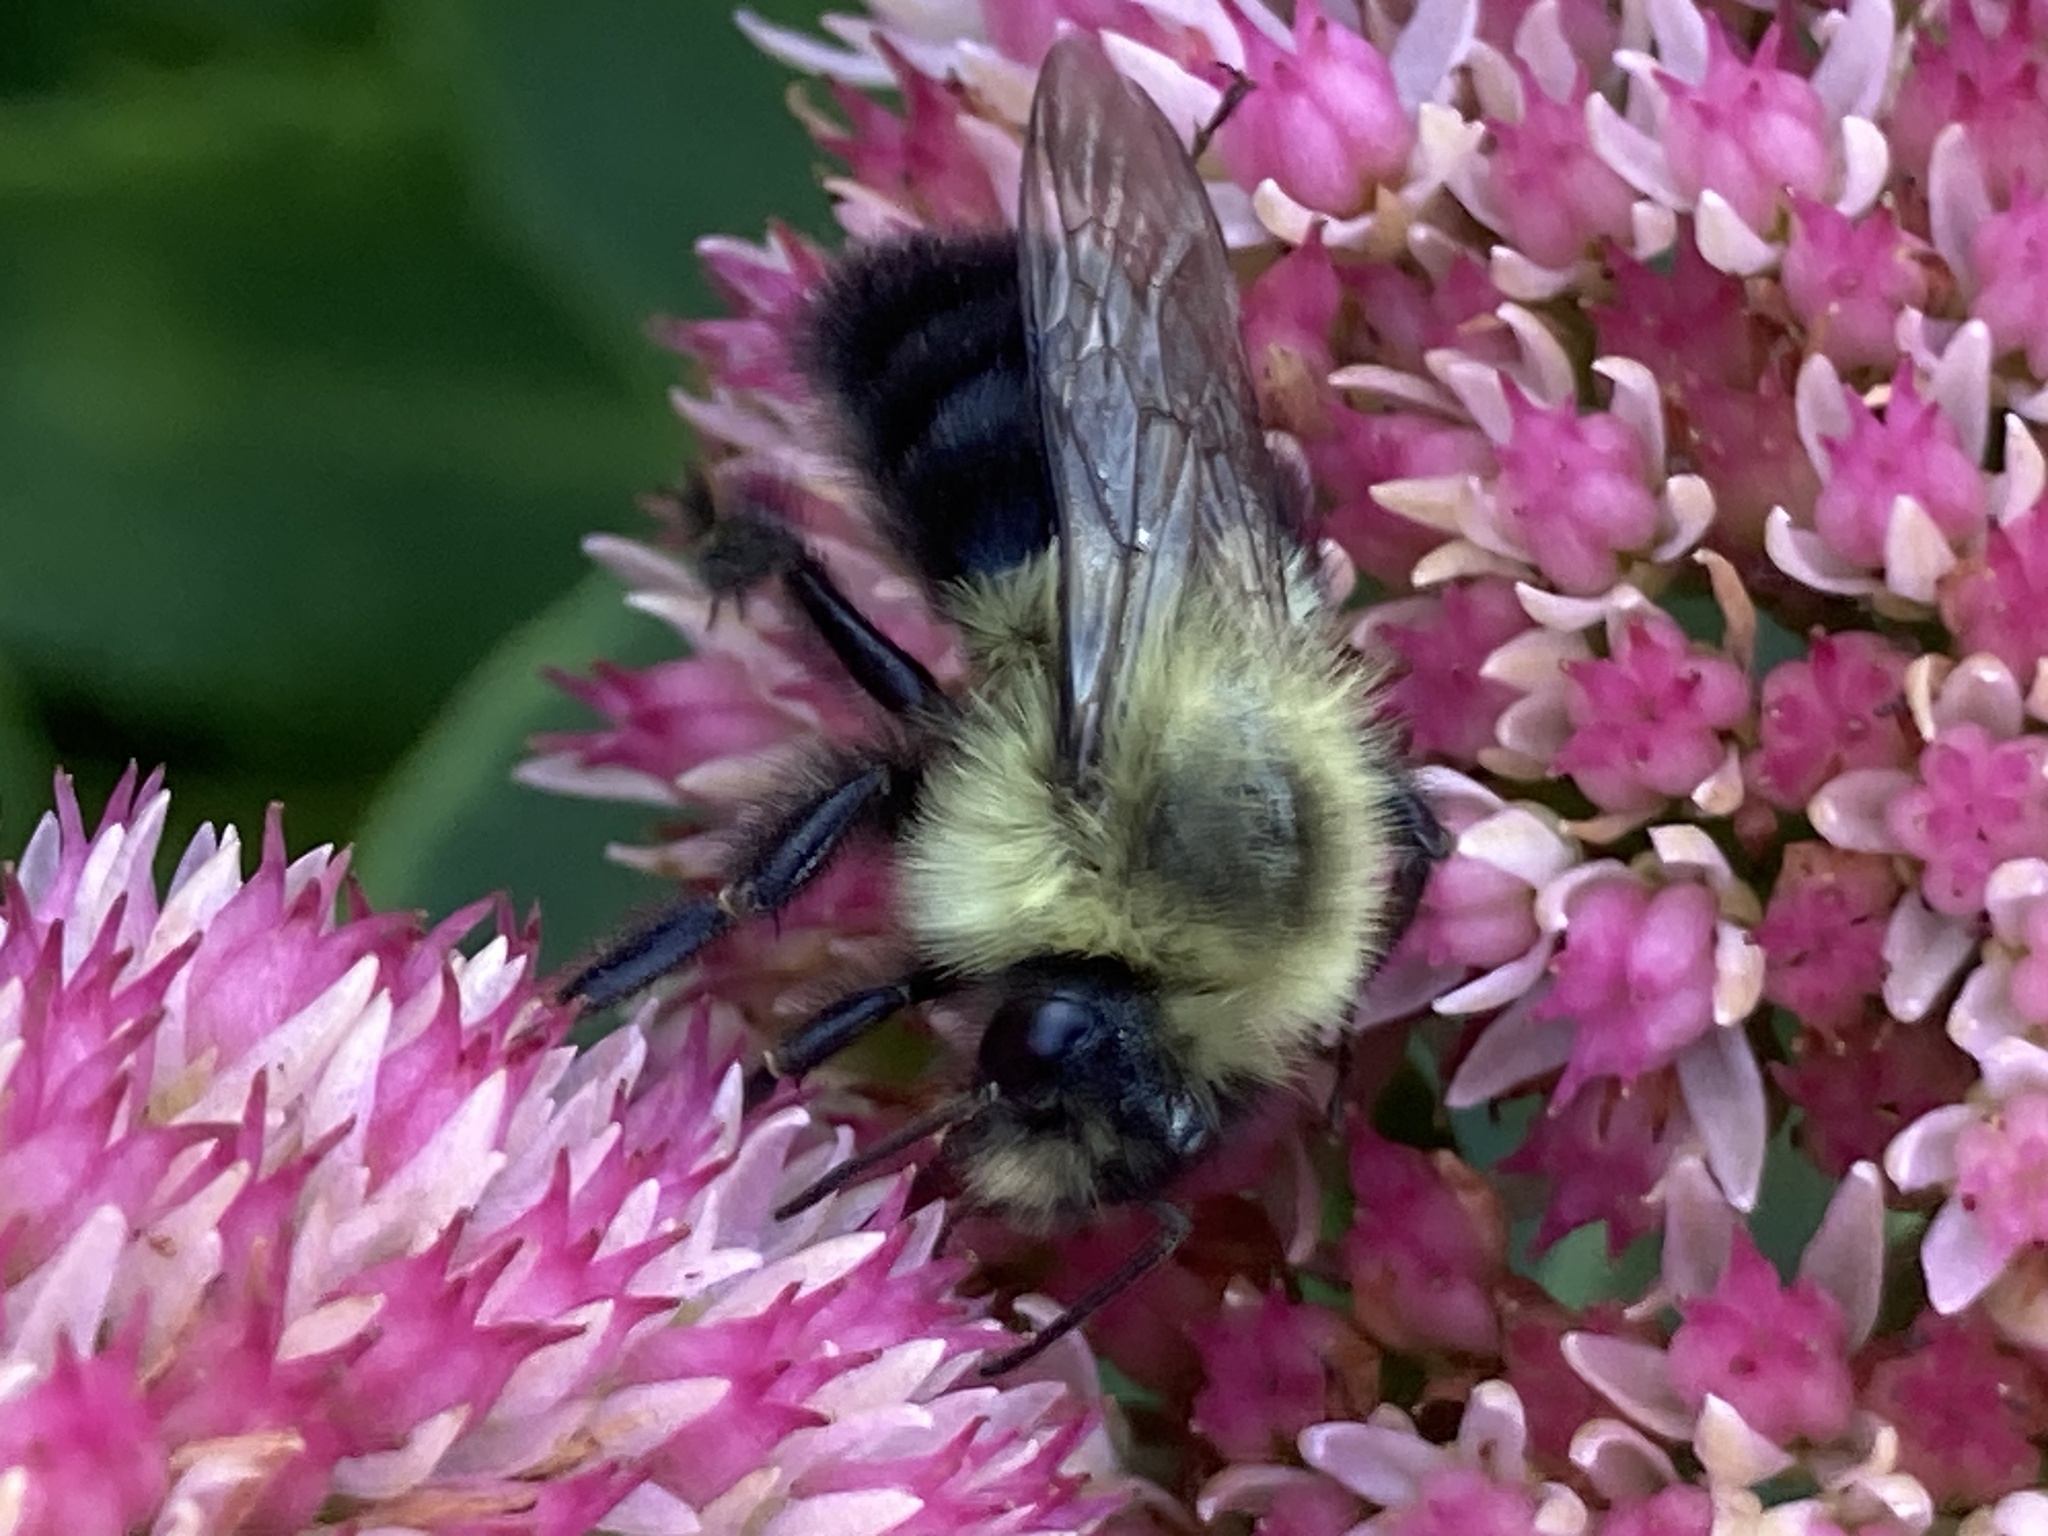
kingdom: Animalia
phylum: Arthropoda
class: Insecta
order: Hymenoptera
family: Apidae
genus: Bombus
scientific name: Bombus impatiens
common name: Common eastern bumble bee
